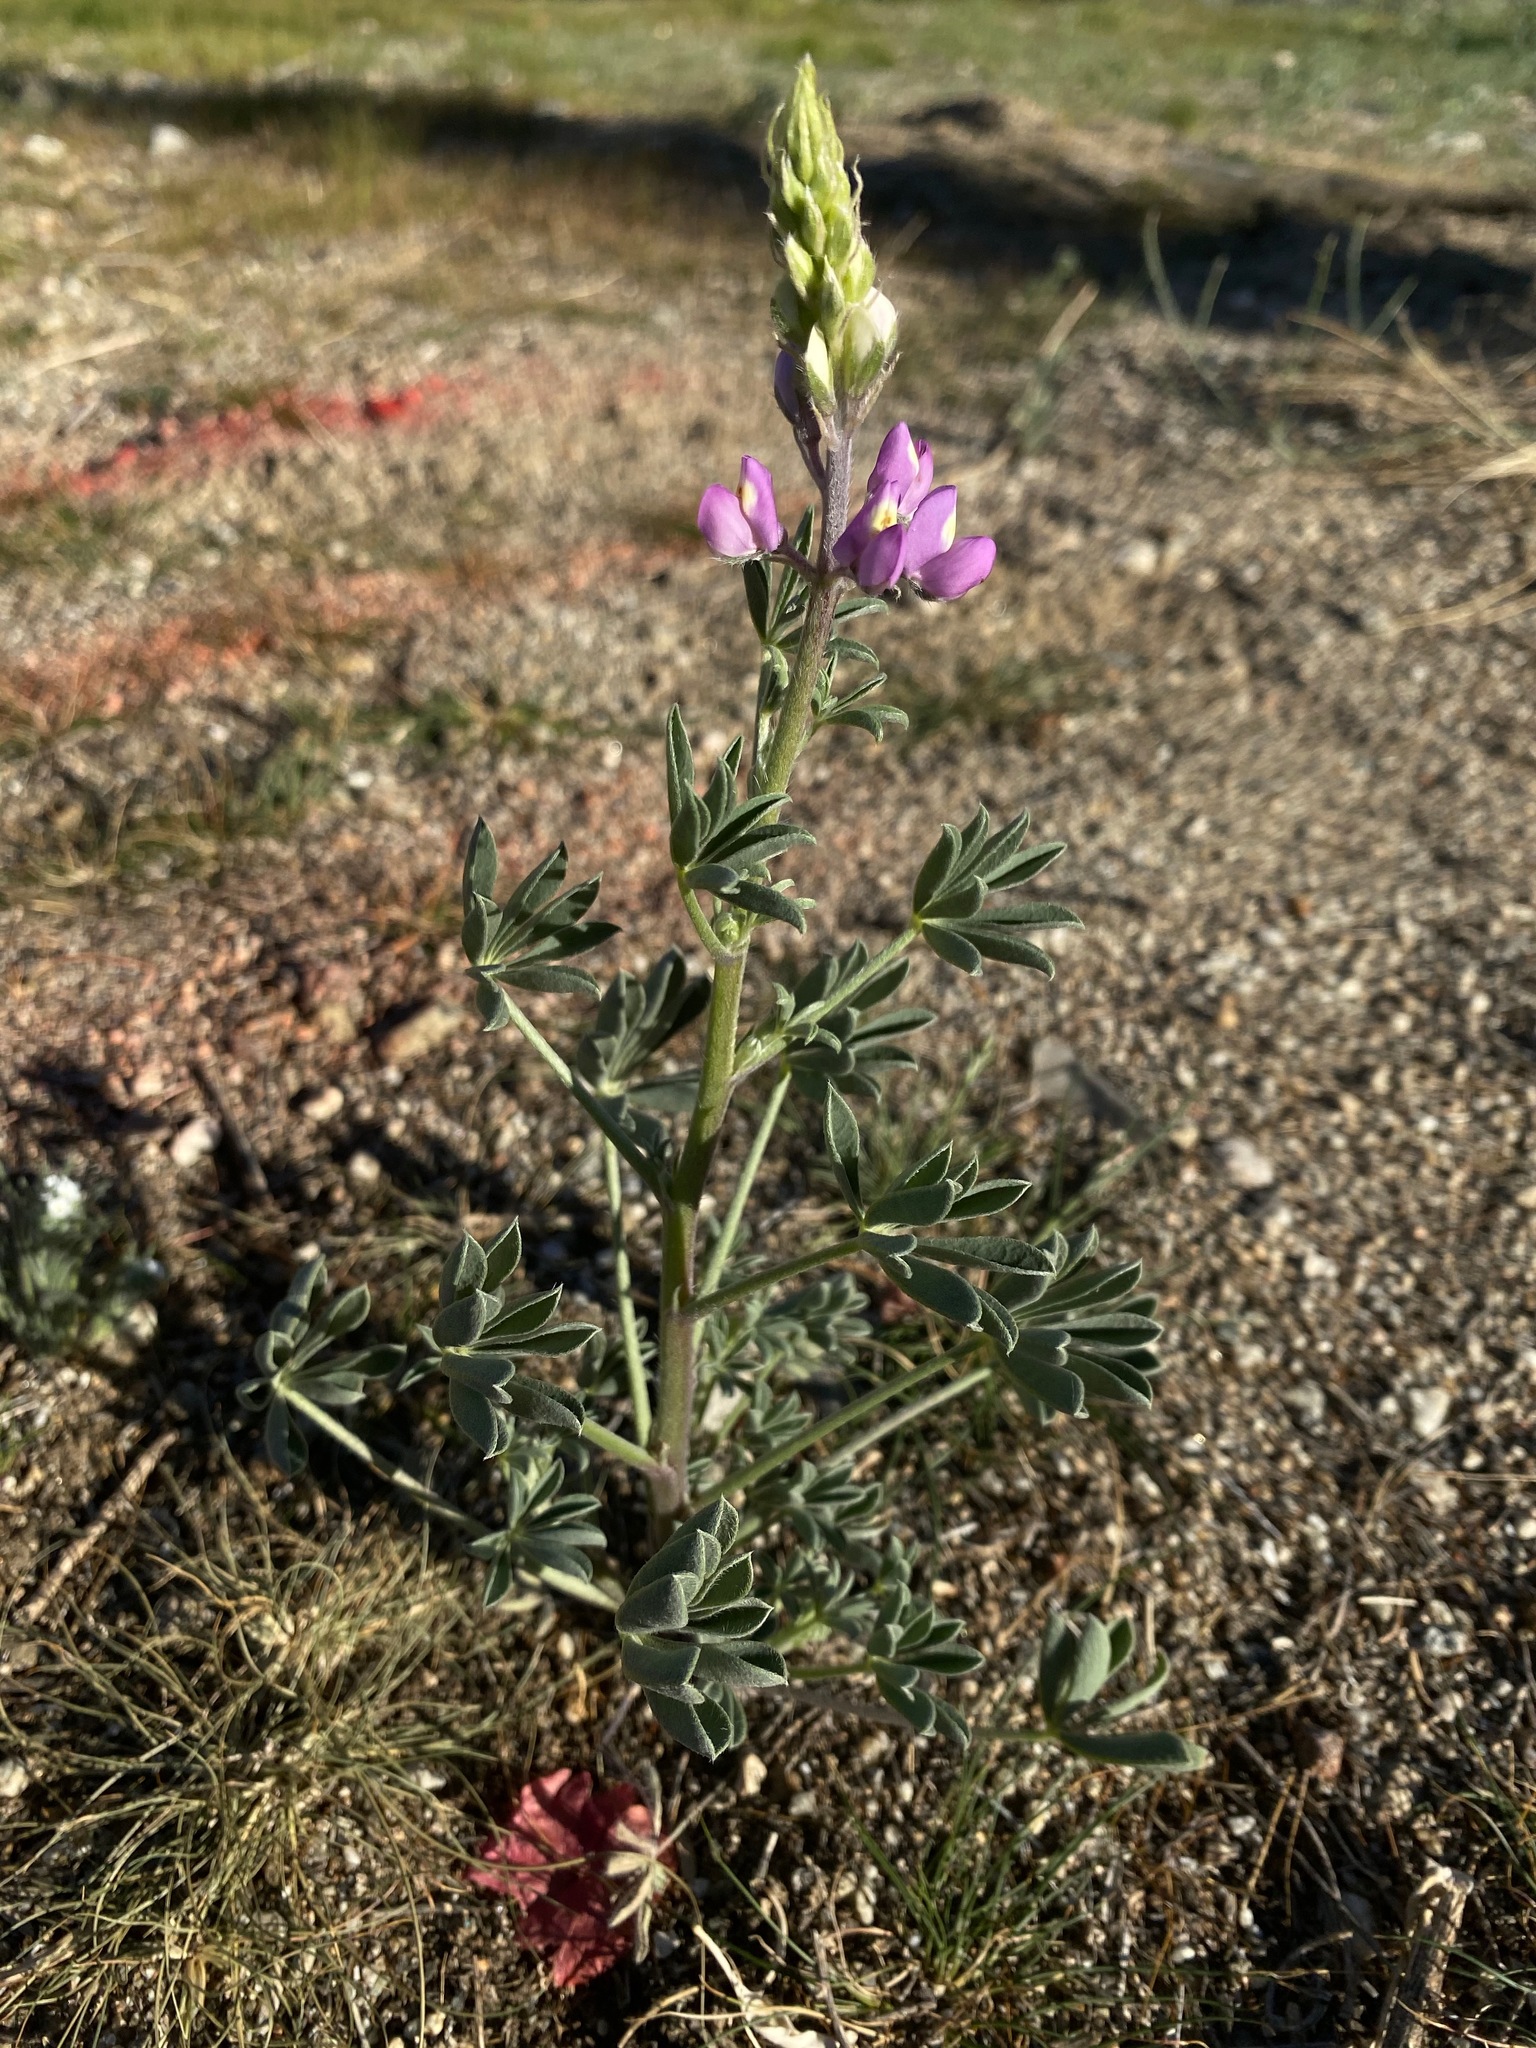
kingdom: Plantae
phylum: Tracheophyta
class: Magnoliopsida
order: Fabales
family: Fabaceae
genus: Lupinus
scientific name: Lupinus arizonicus
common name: Arizona lupine
